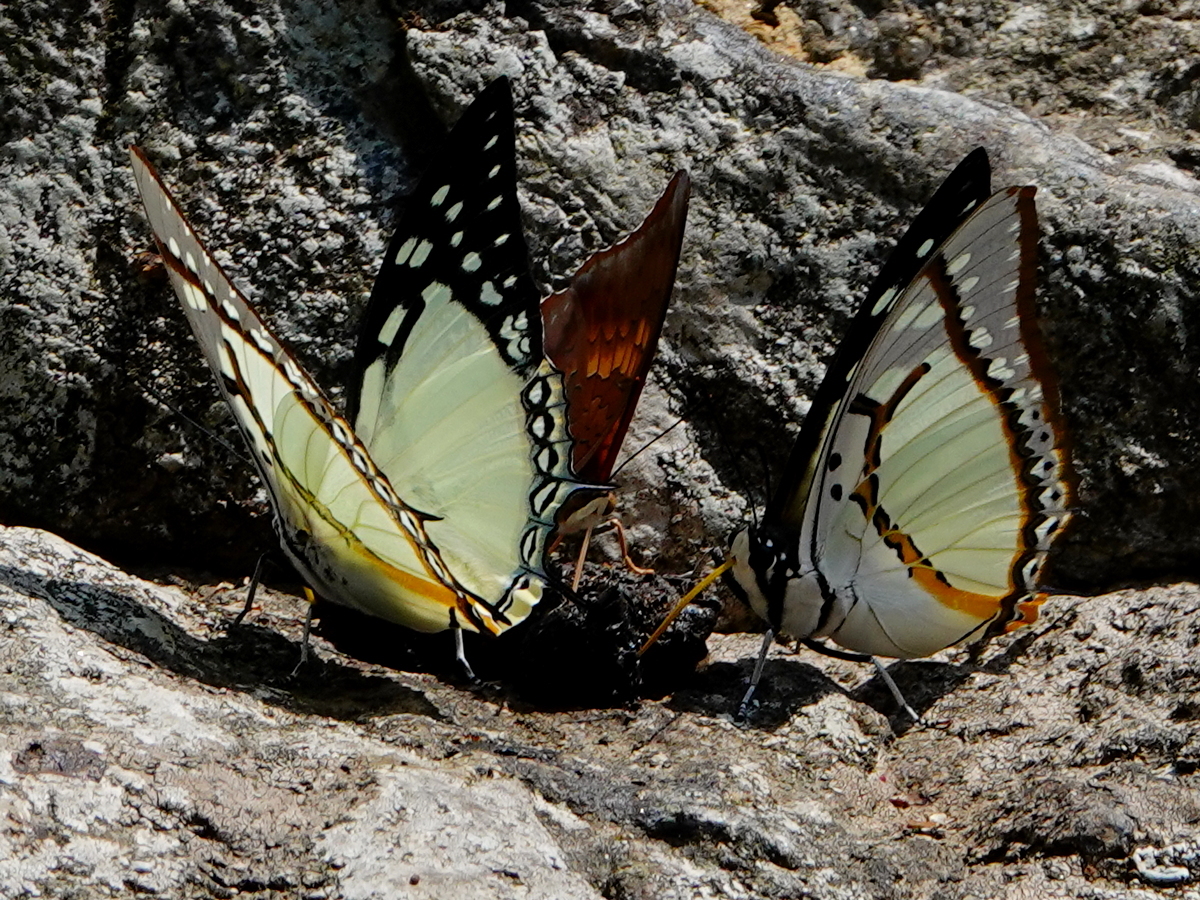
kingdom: Animalia
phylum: Arthropoda
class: Insecta
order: Lepidoptera
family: Nymphalidae
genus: Polyura
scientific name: Polyura eudamippus
